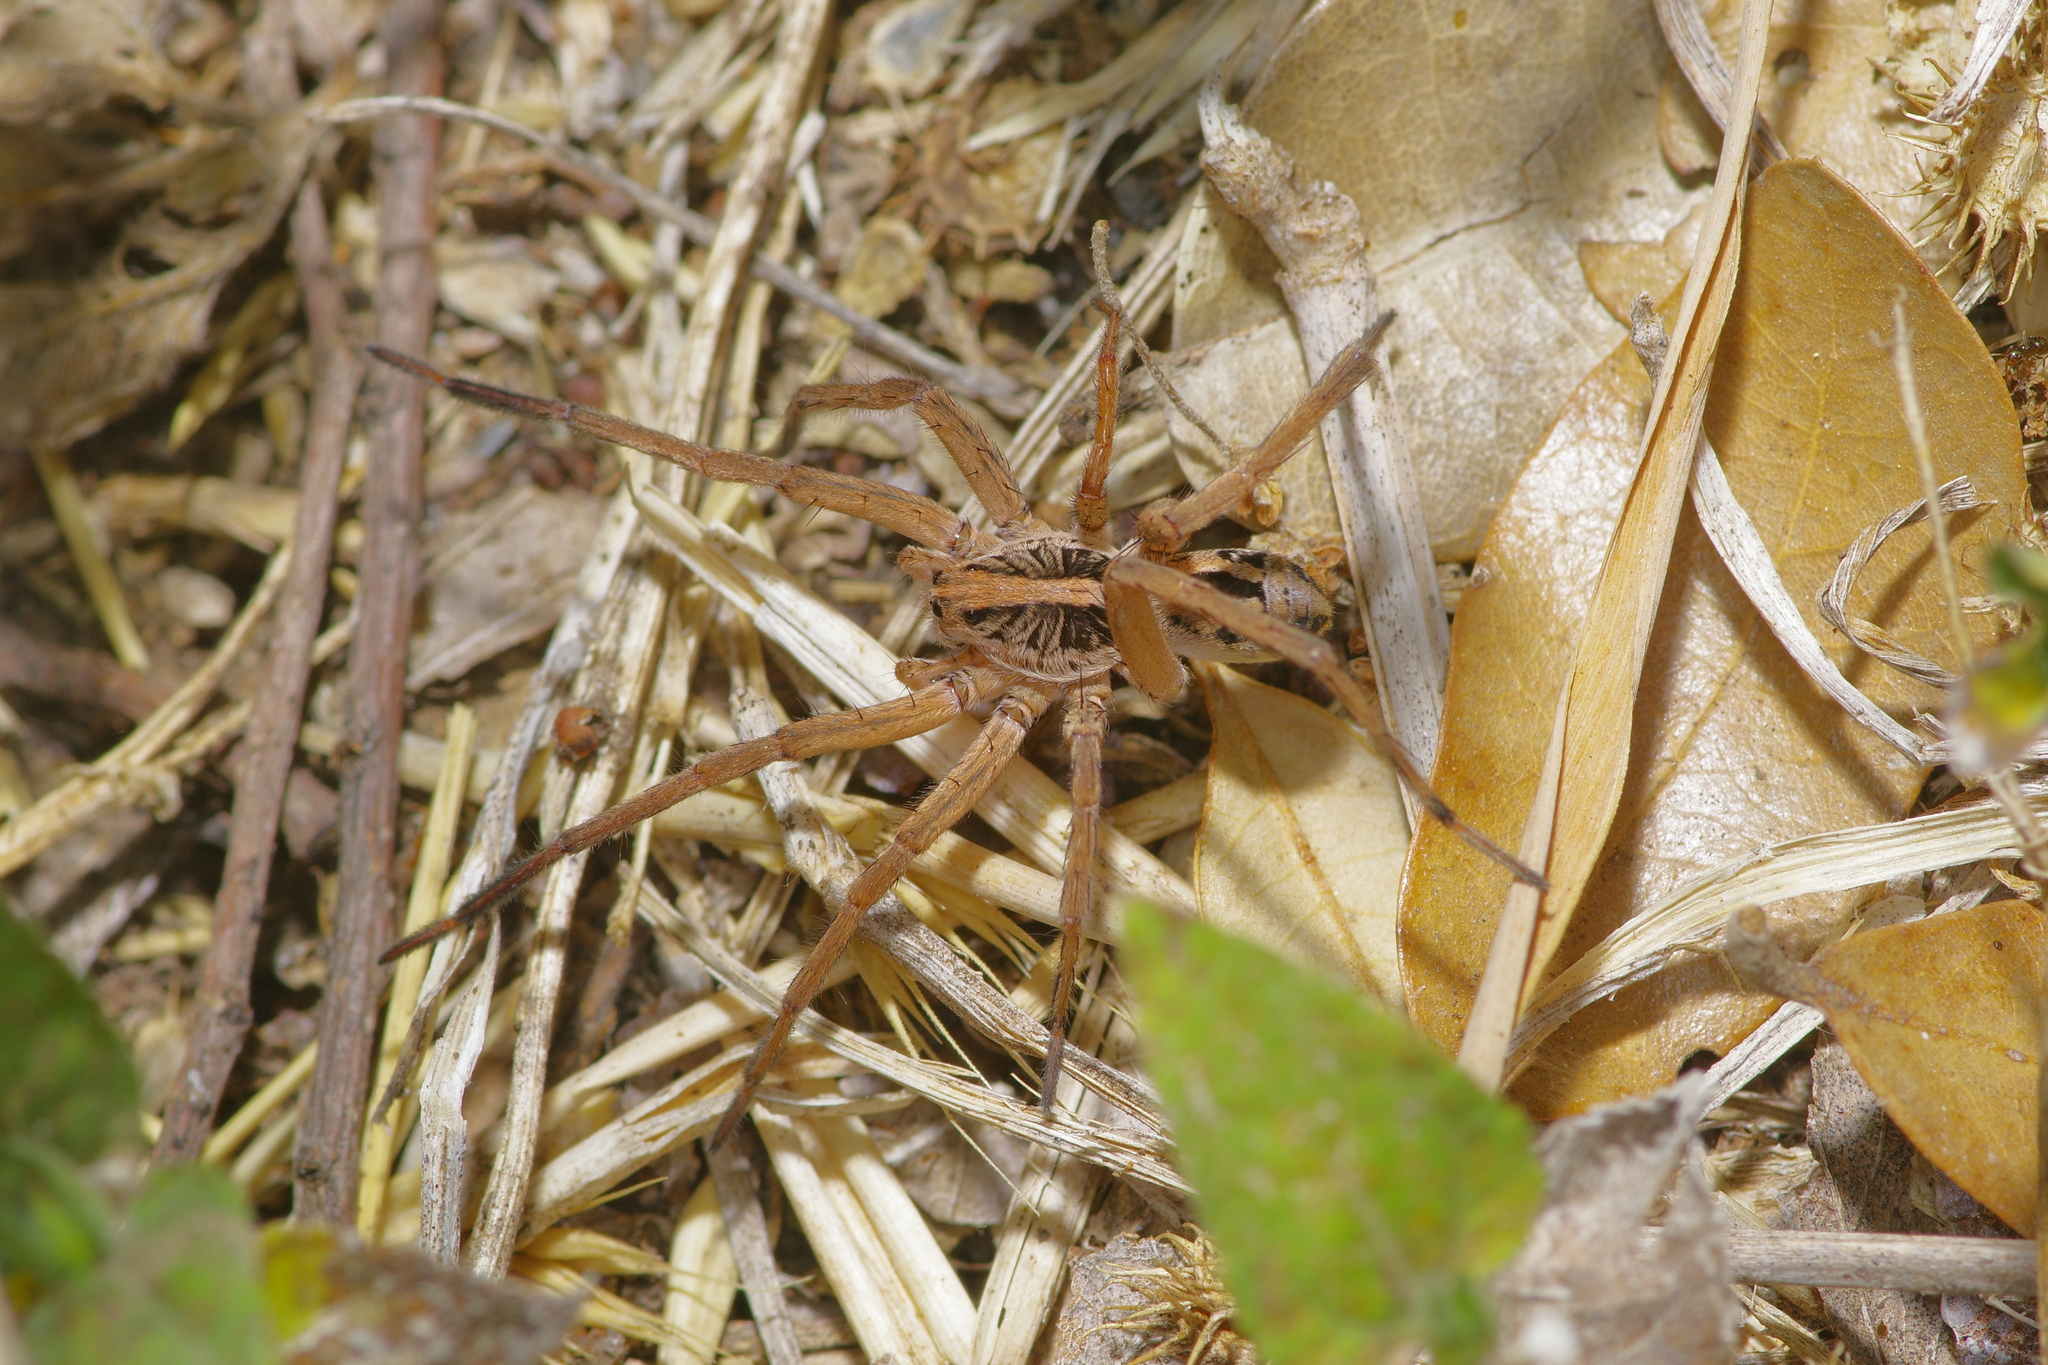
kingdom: Animalia
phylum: Arthropoda
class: Arachnida
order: Araneae
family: Lycosidae
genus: Schizocosa
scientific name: Schizocosa avida
